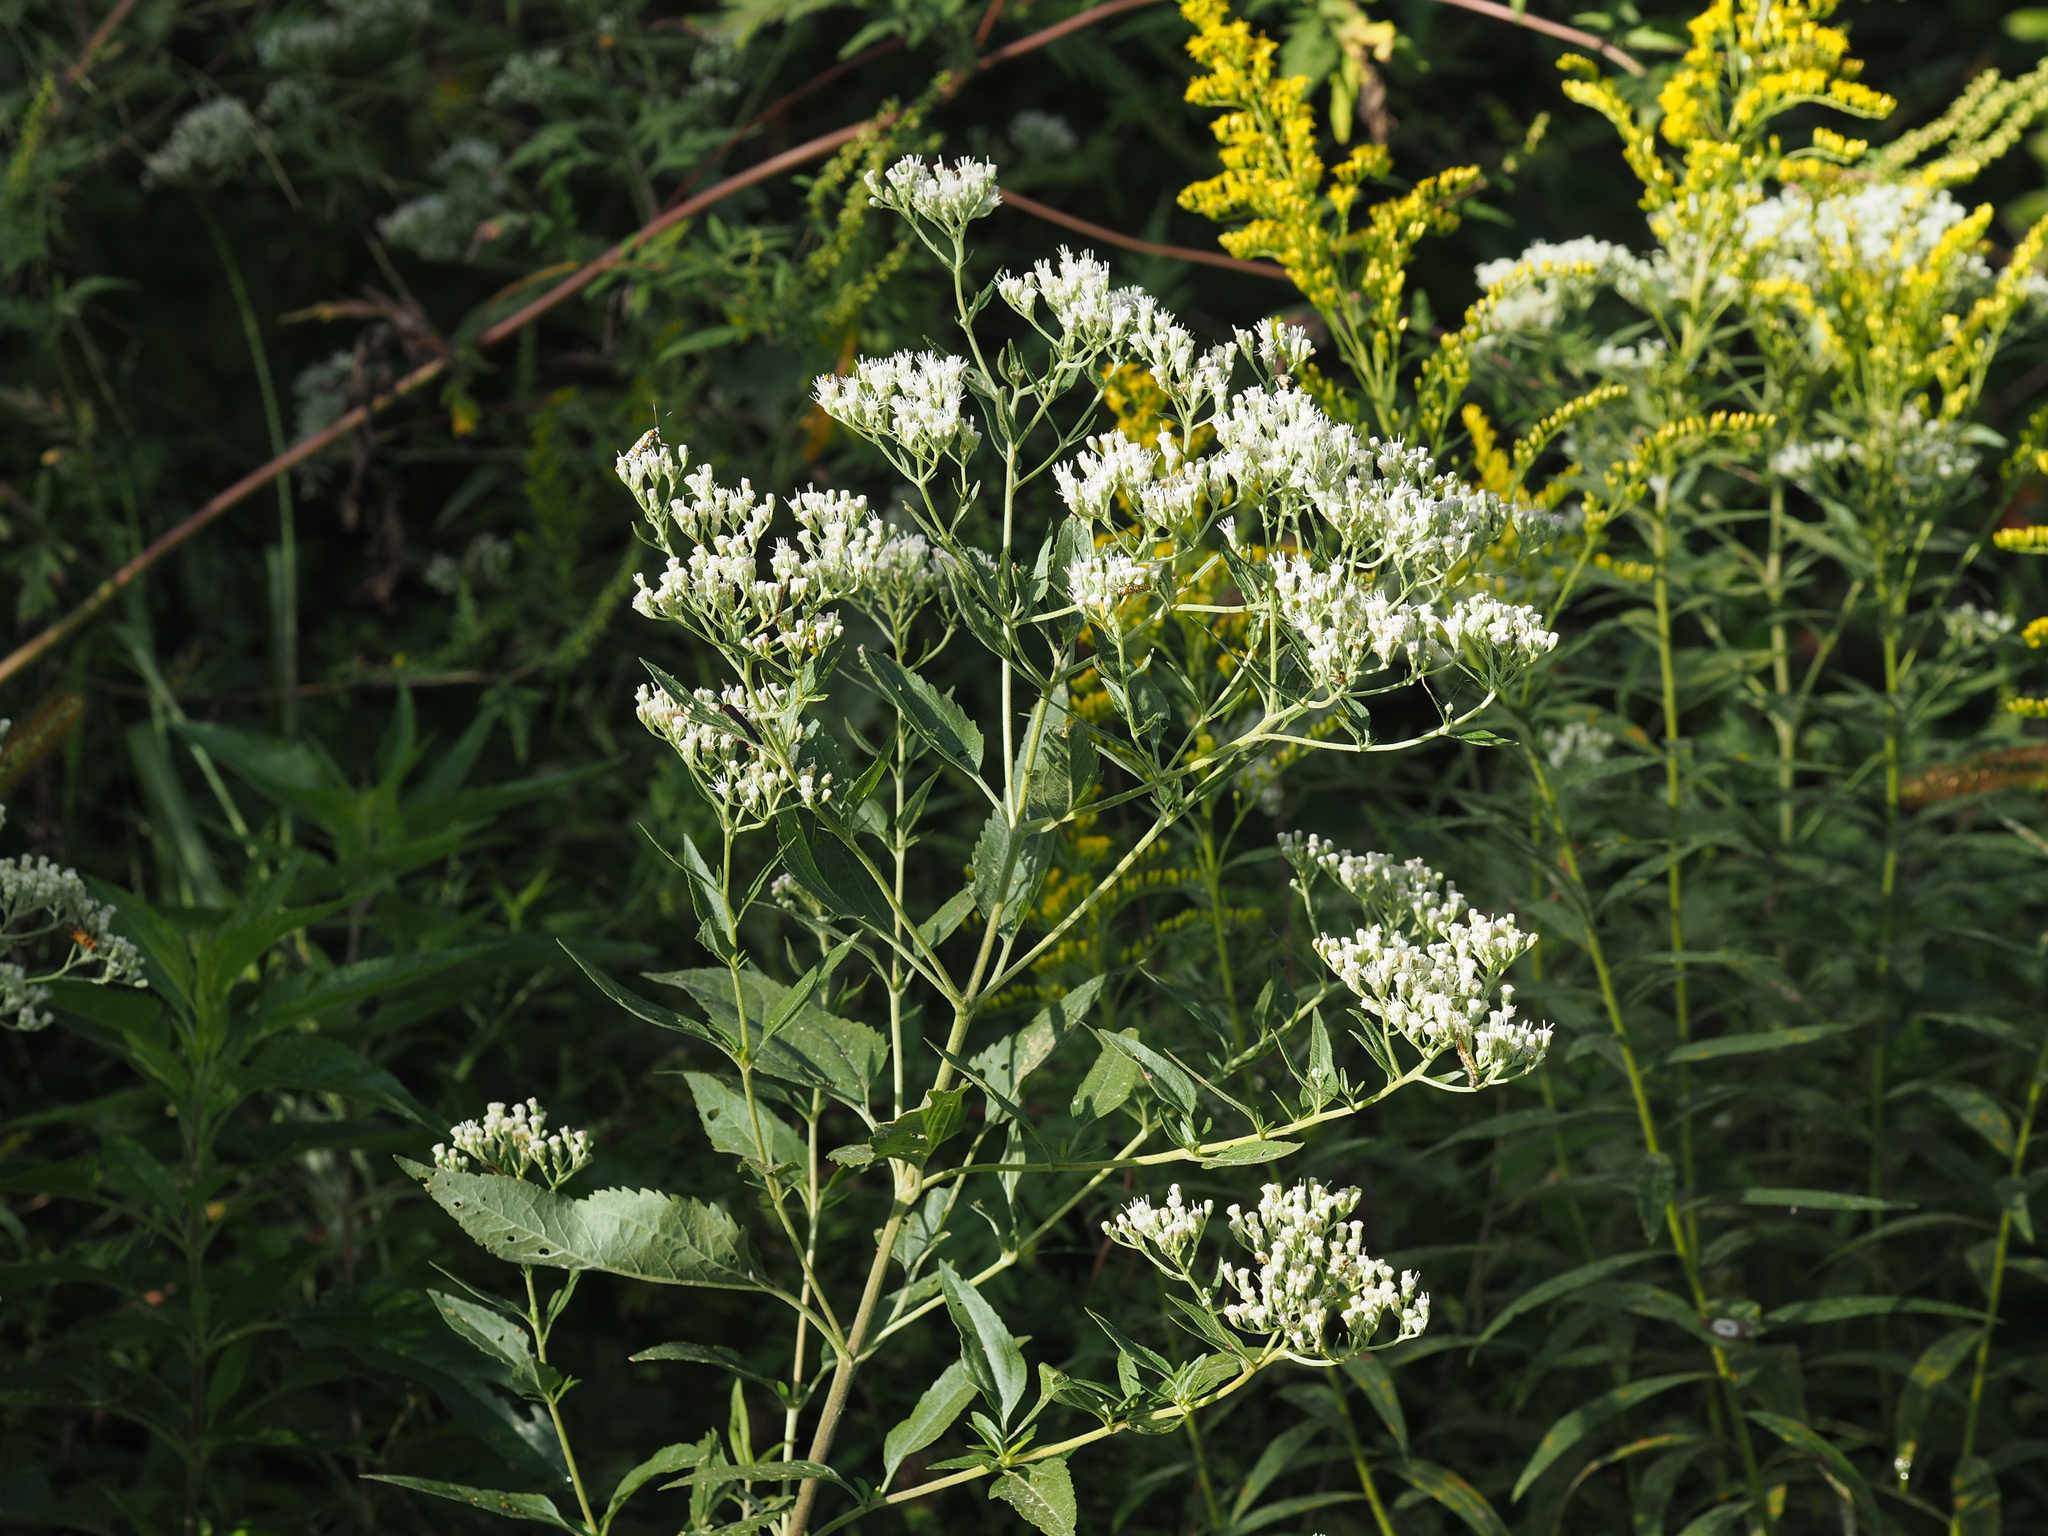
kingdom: Plantae
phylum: Tracheophyta
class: Magnoliopsida
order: Asterales
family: Asteraceae
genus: Eupatorium
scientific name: Eupatorium serotinum
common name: Late boneset
